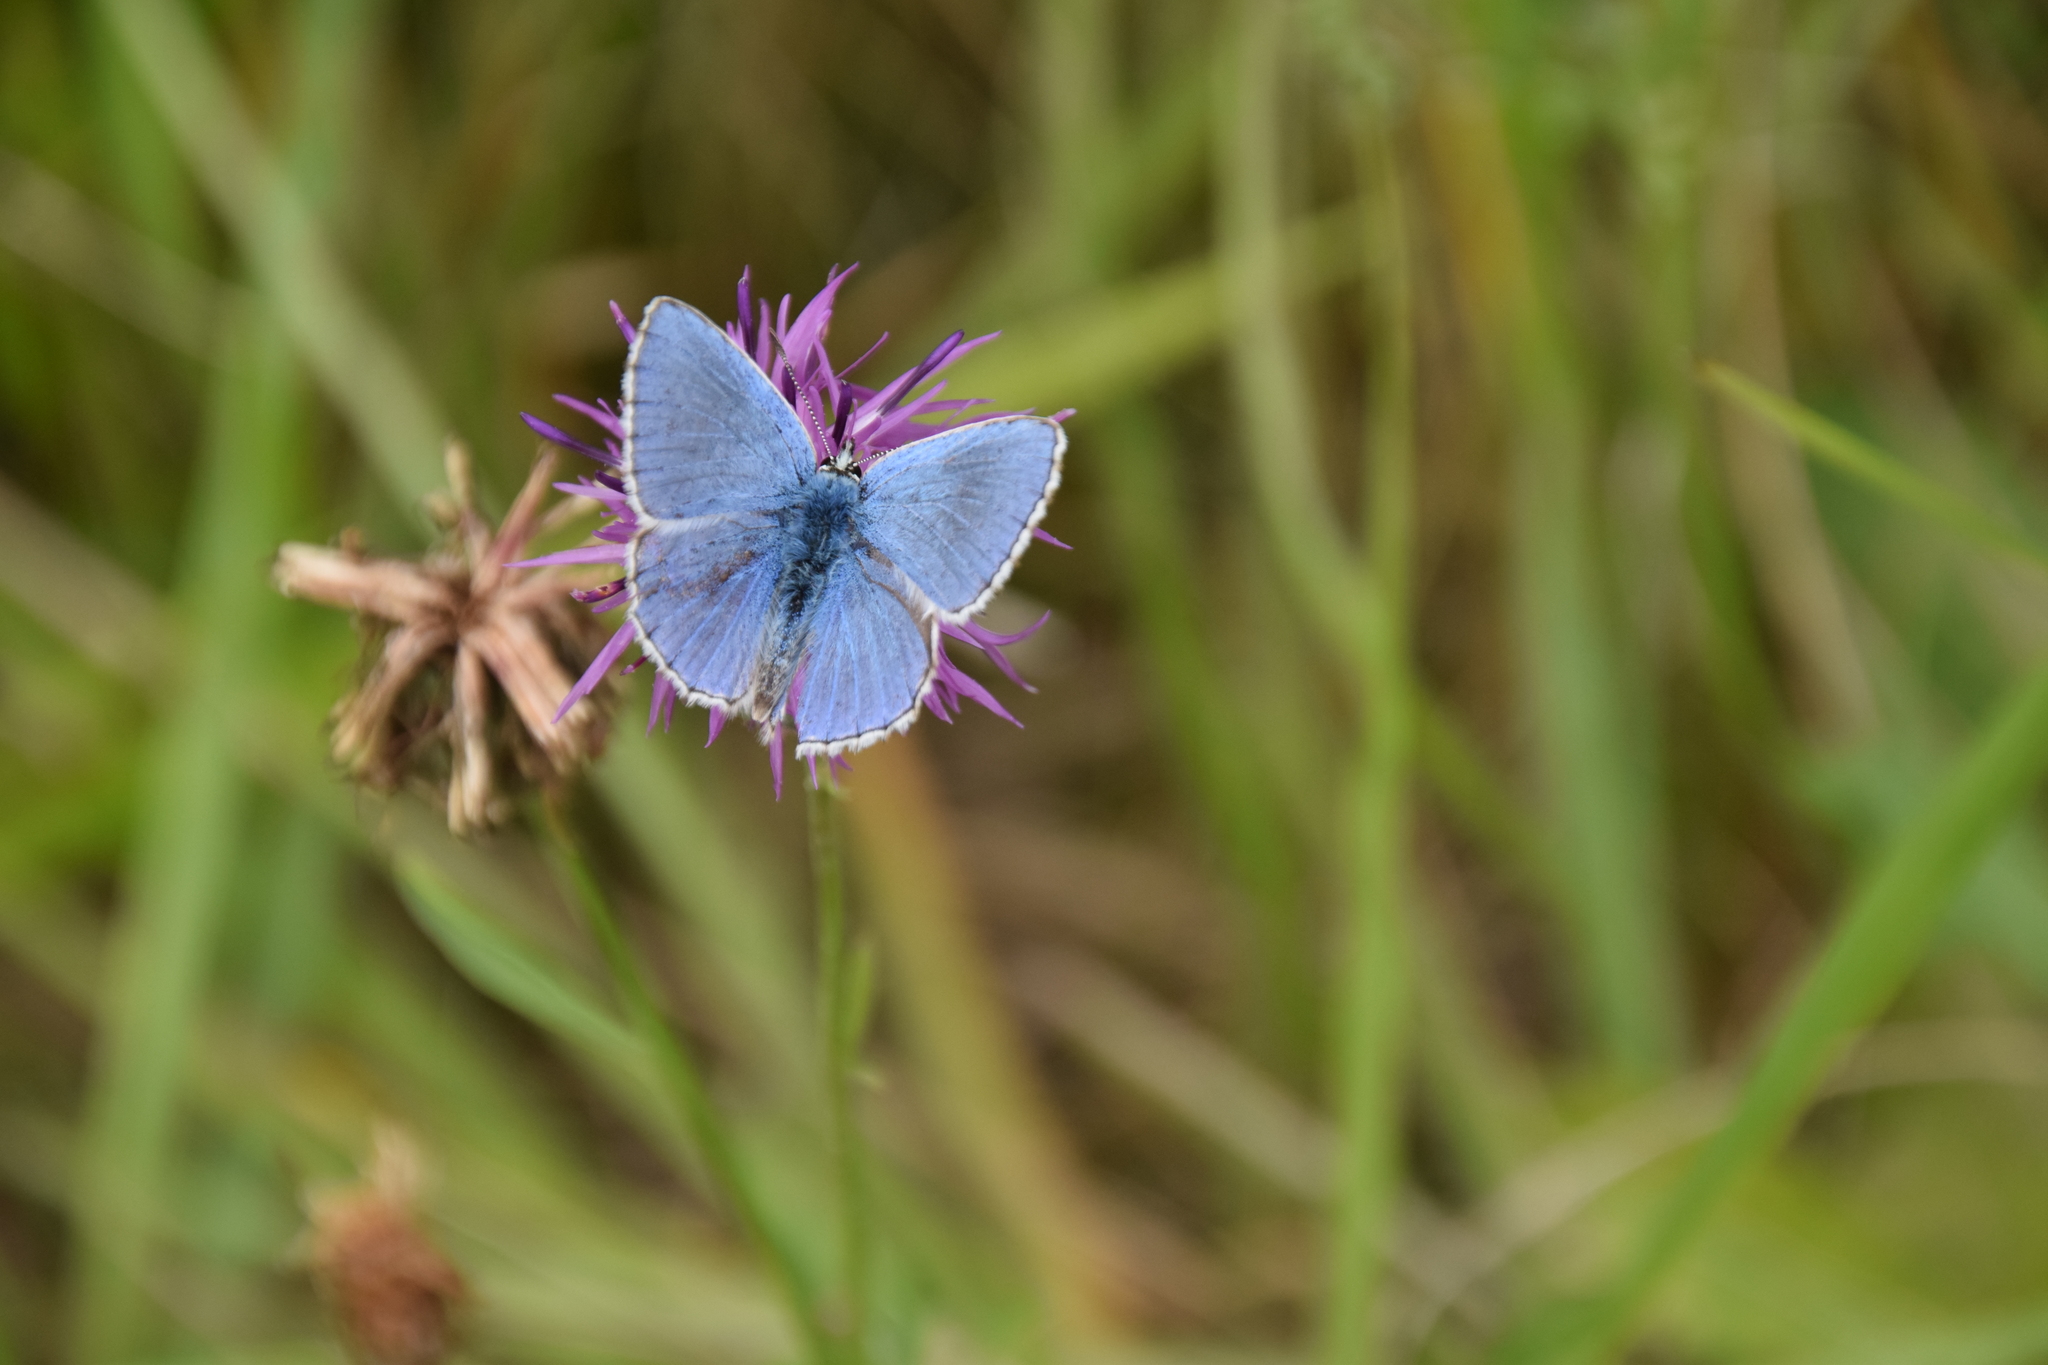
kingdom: Animalia
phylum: Arthropoda
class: Insecta
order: Lepidoptera
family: Lycaenidae
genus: Lysandra
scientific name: Lysandra bellargus
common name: Adonis blue
